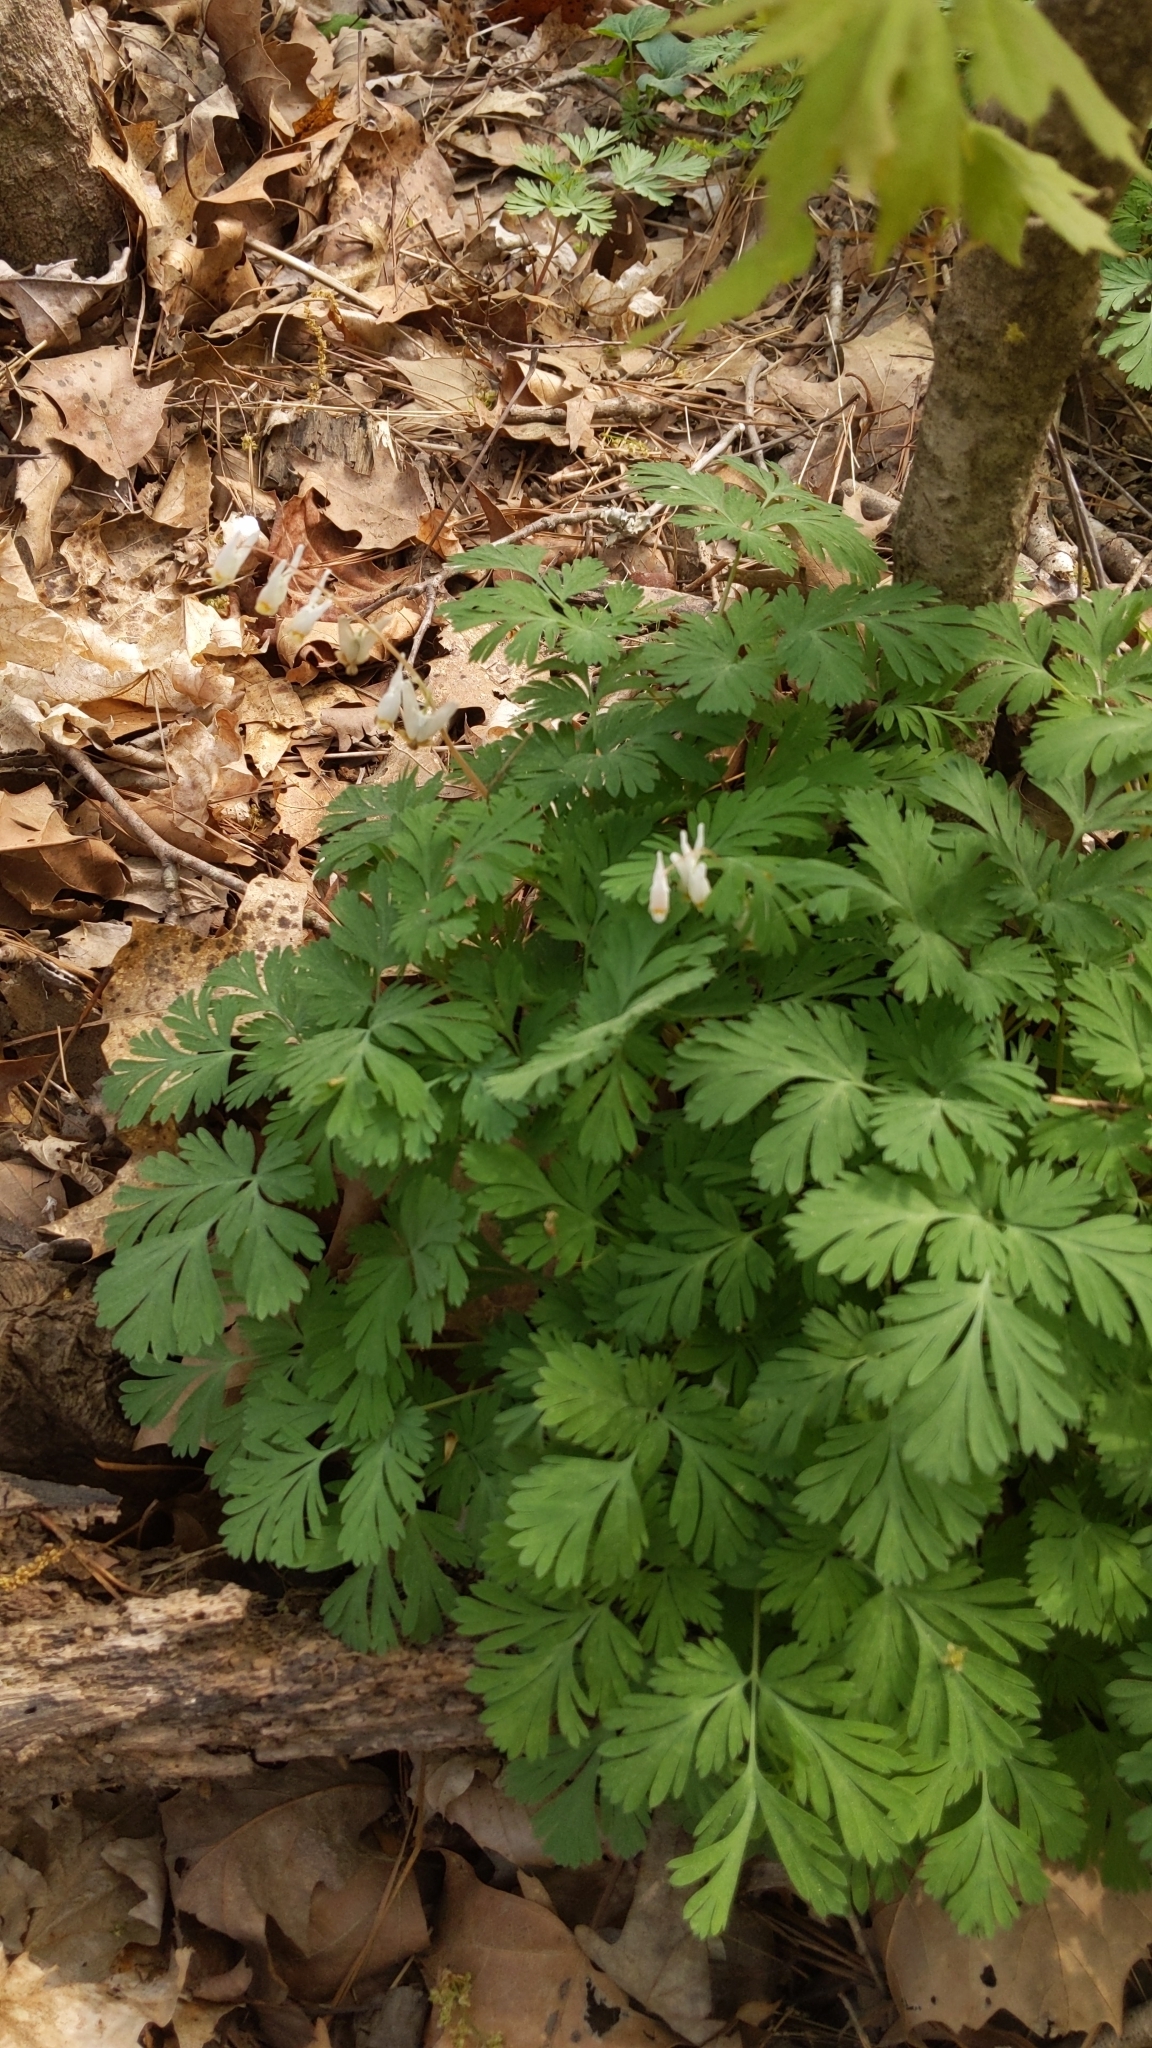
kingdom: Plantae
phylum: Tracheophyta
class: Magnoliopsida
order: Ranunculales
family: Papaveraceae
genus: Dicentra
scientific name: Dicentra cucullaria
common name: Dutchman's breeches
